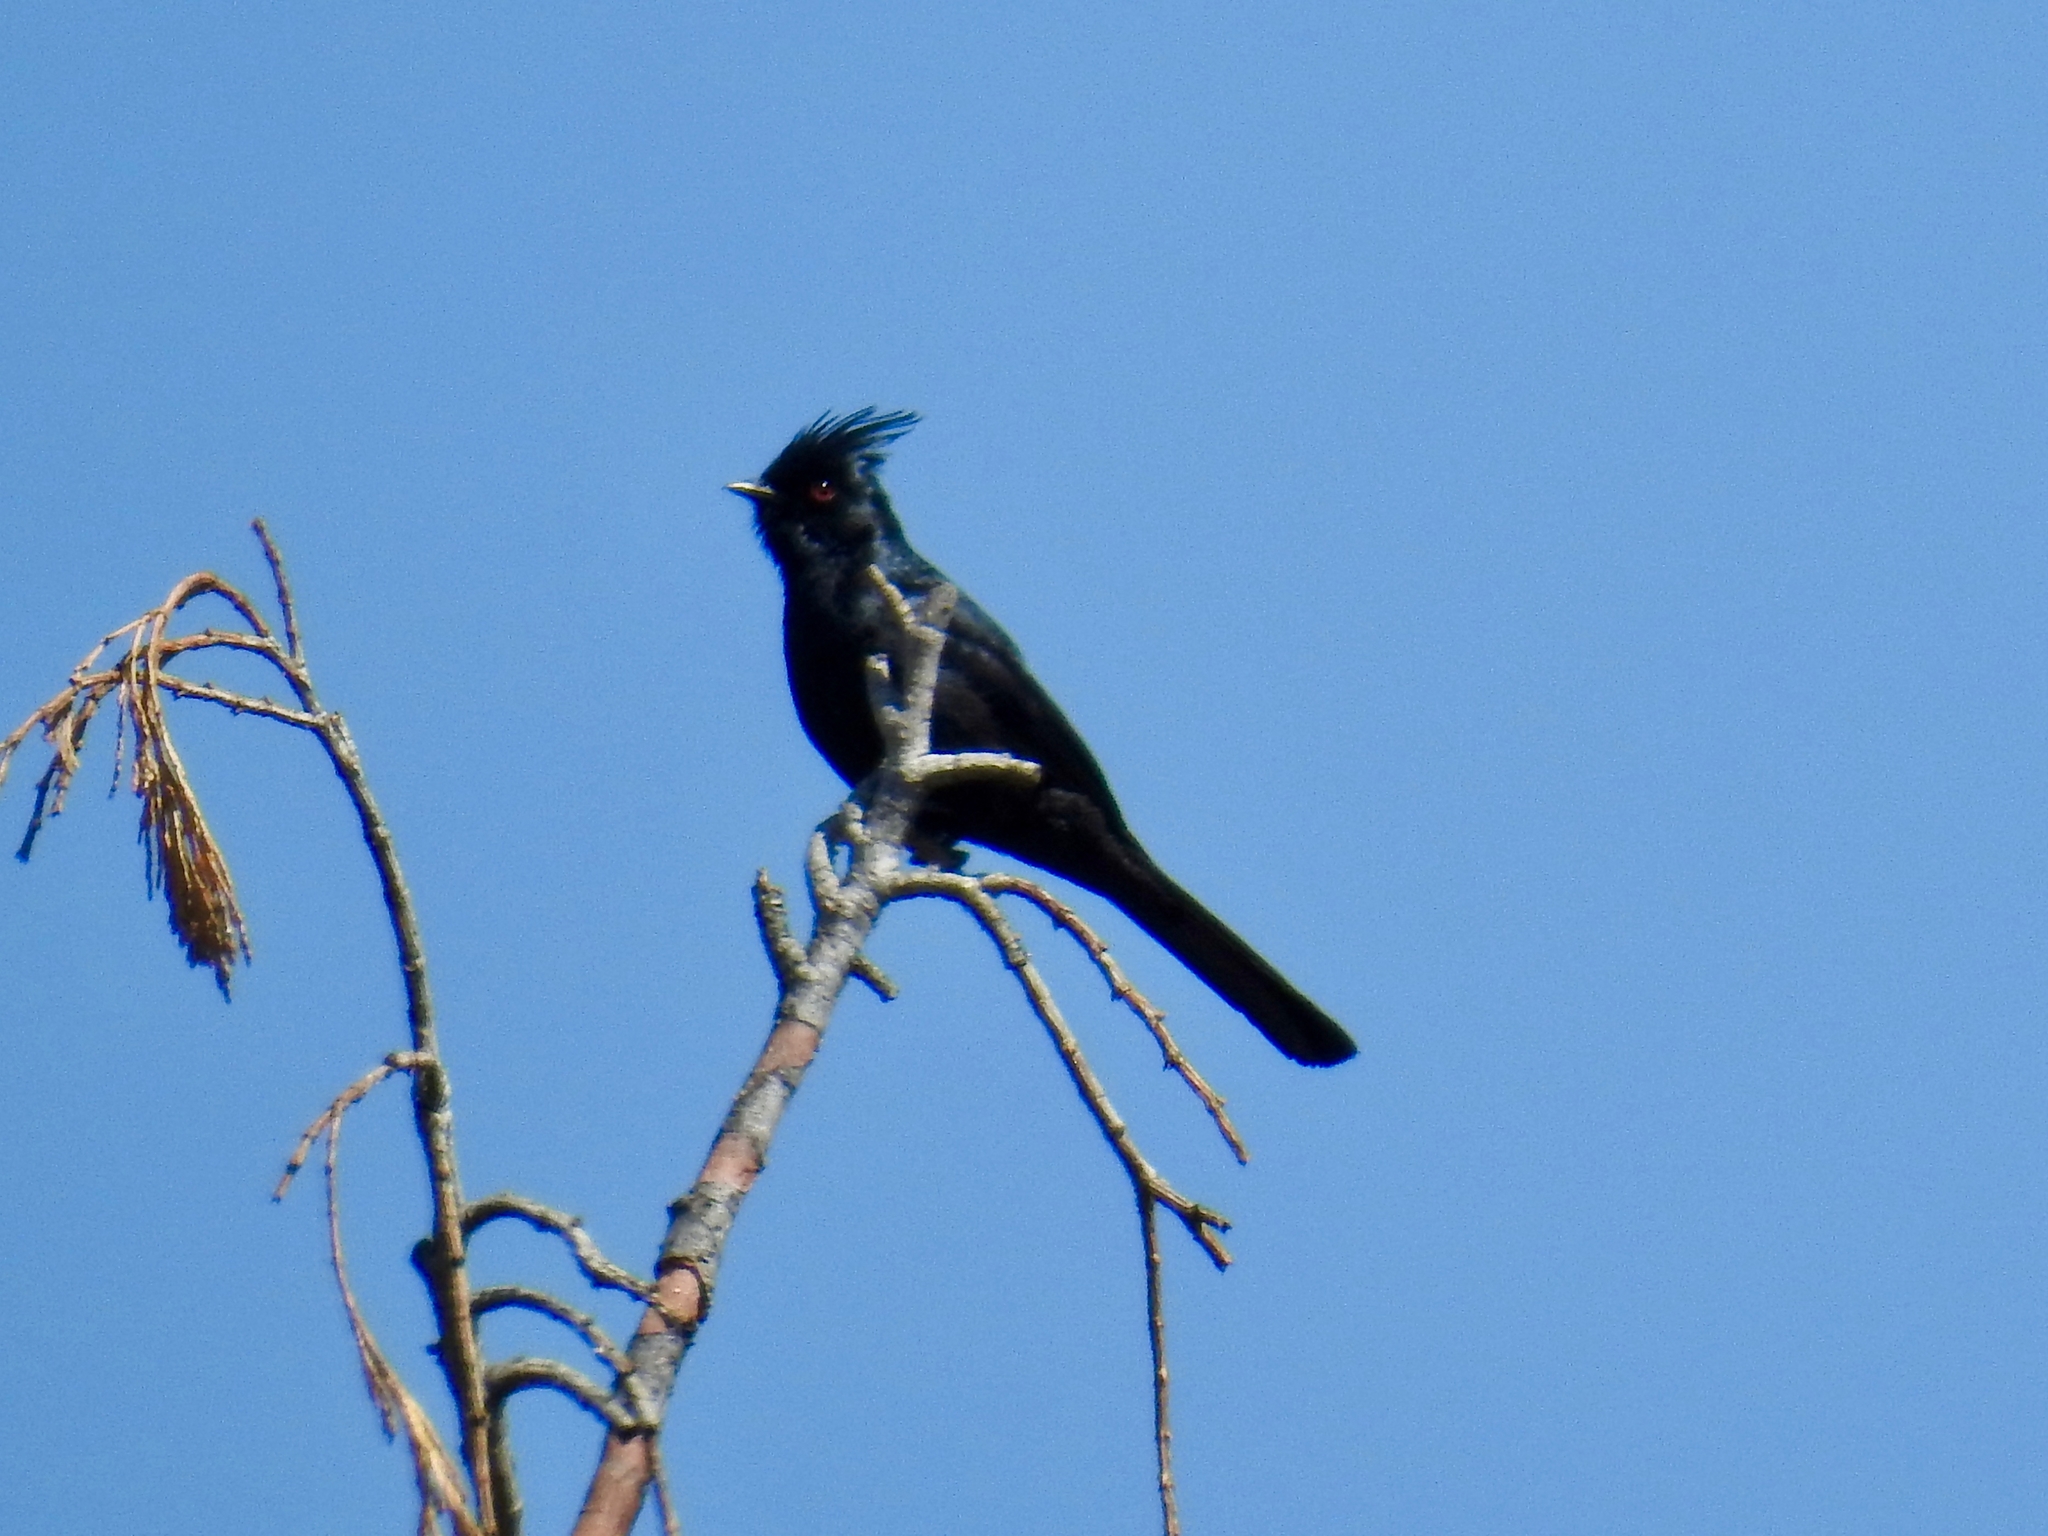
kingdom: Animalia
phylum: Chordata
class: Aves
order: Passeriformes
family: Ptilogonatidae
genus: Phainopepla
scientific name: Phainopepla nitens
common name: Phainopepla
